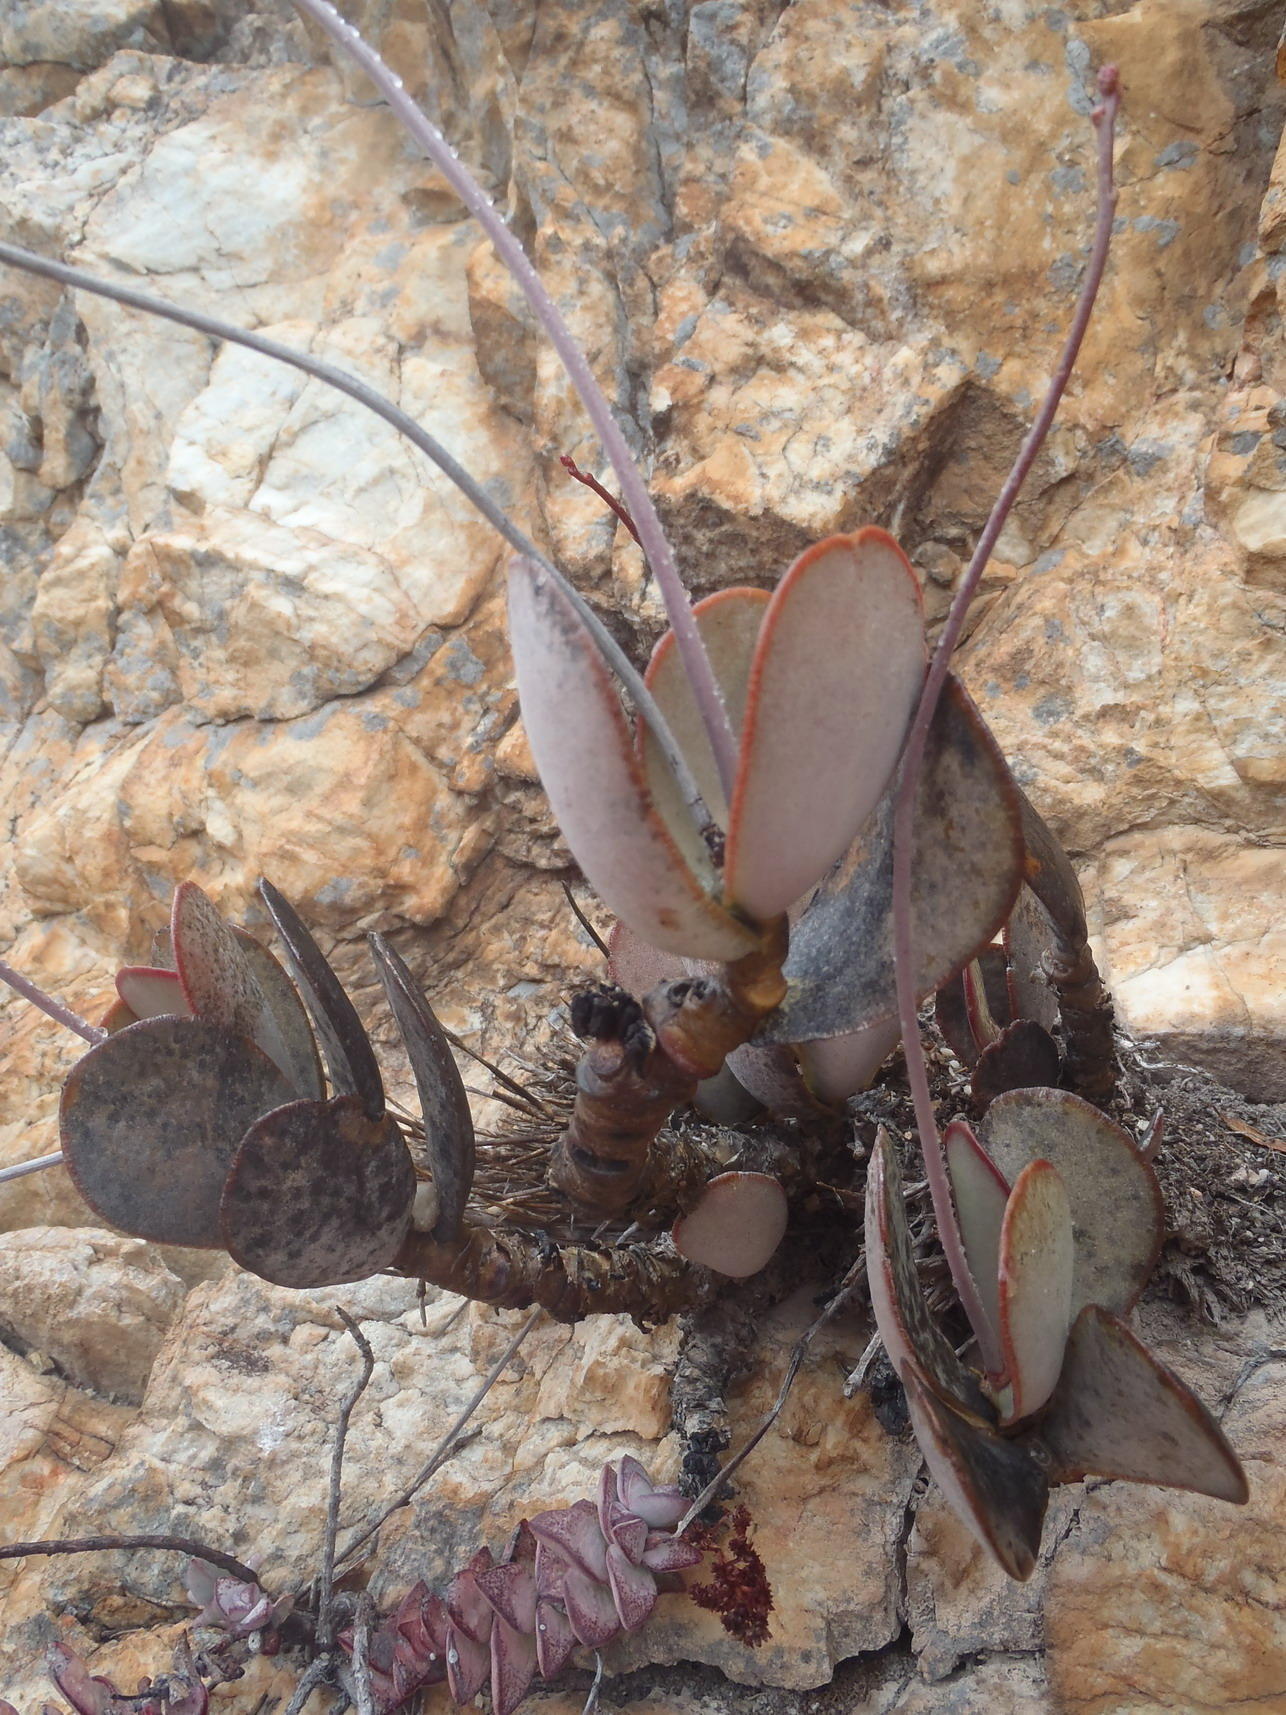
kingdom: Plantae
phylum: Tracheophyta
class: Magnoliopsida
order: Saxifragales
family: Crassulaceae
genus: Adromischus
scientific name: Adromischus sphenophyllus
